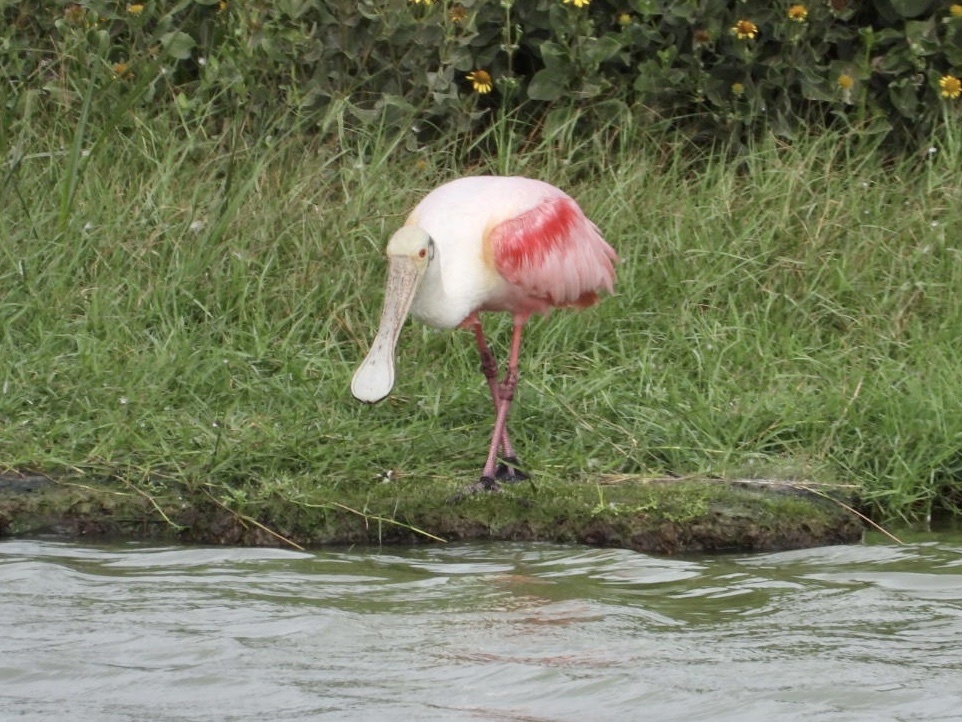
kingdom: Animalia
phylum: Chordata
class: Aves
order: Pelecaniformes
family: Threskiornithidae
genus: Platalea
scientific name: Platalea ajaja
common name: Roseate spoonbill
